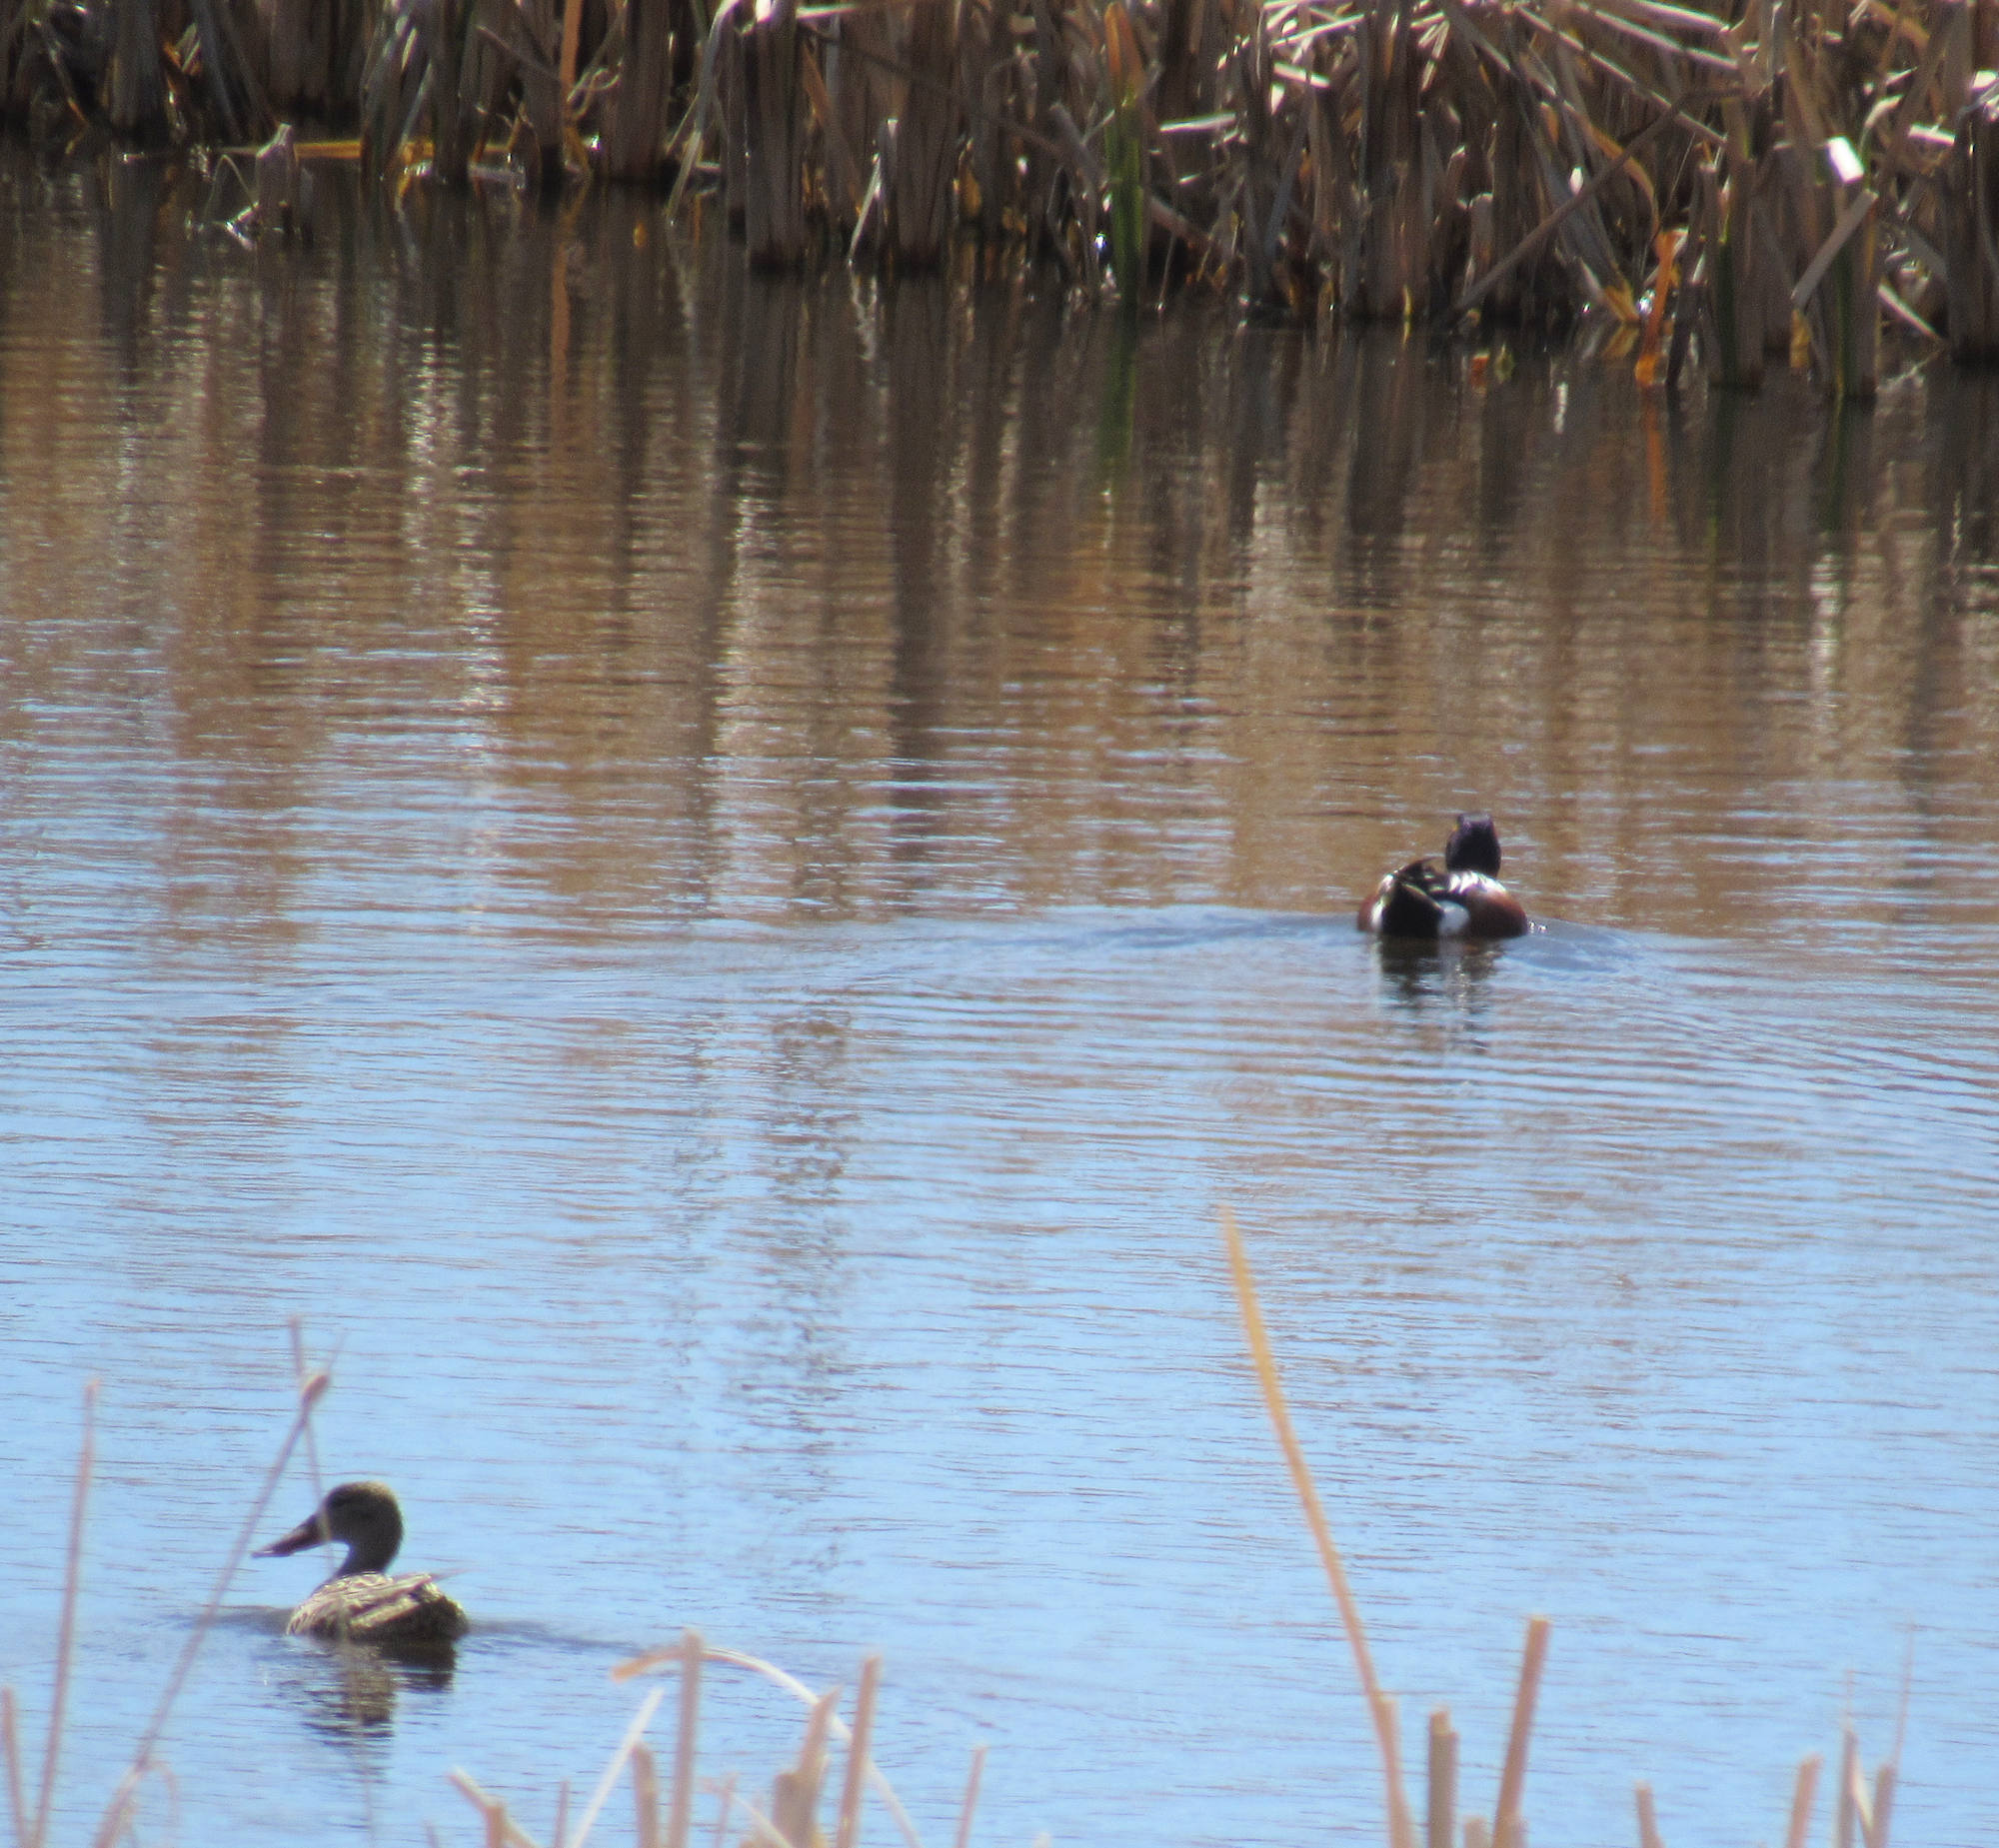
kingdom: Animalia
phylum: Chordata
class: Aves
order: Anseriformes
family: Anatidae
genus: Spatula
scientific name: Spatula clypeata
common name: Northern shoveler
